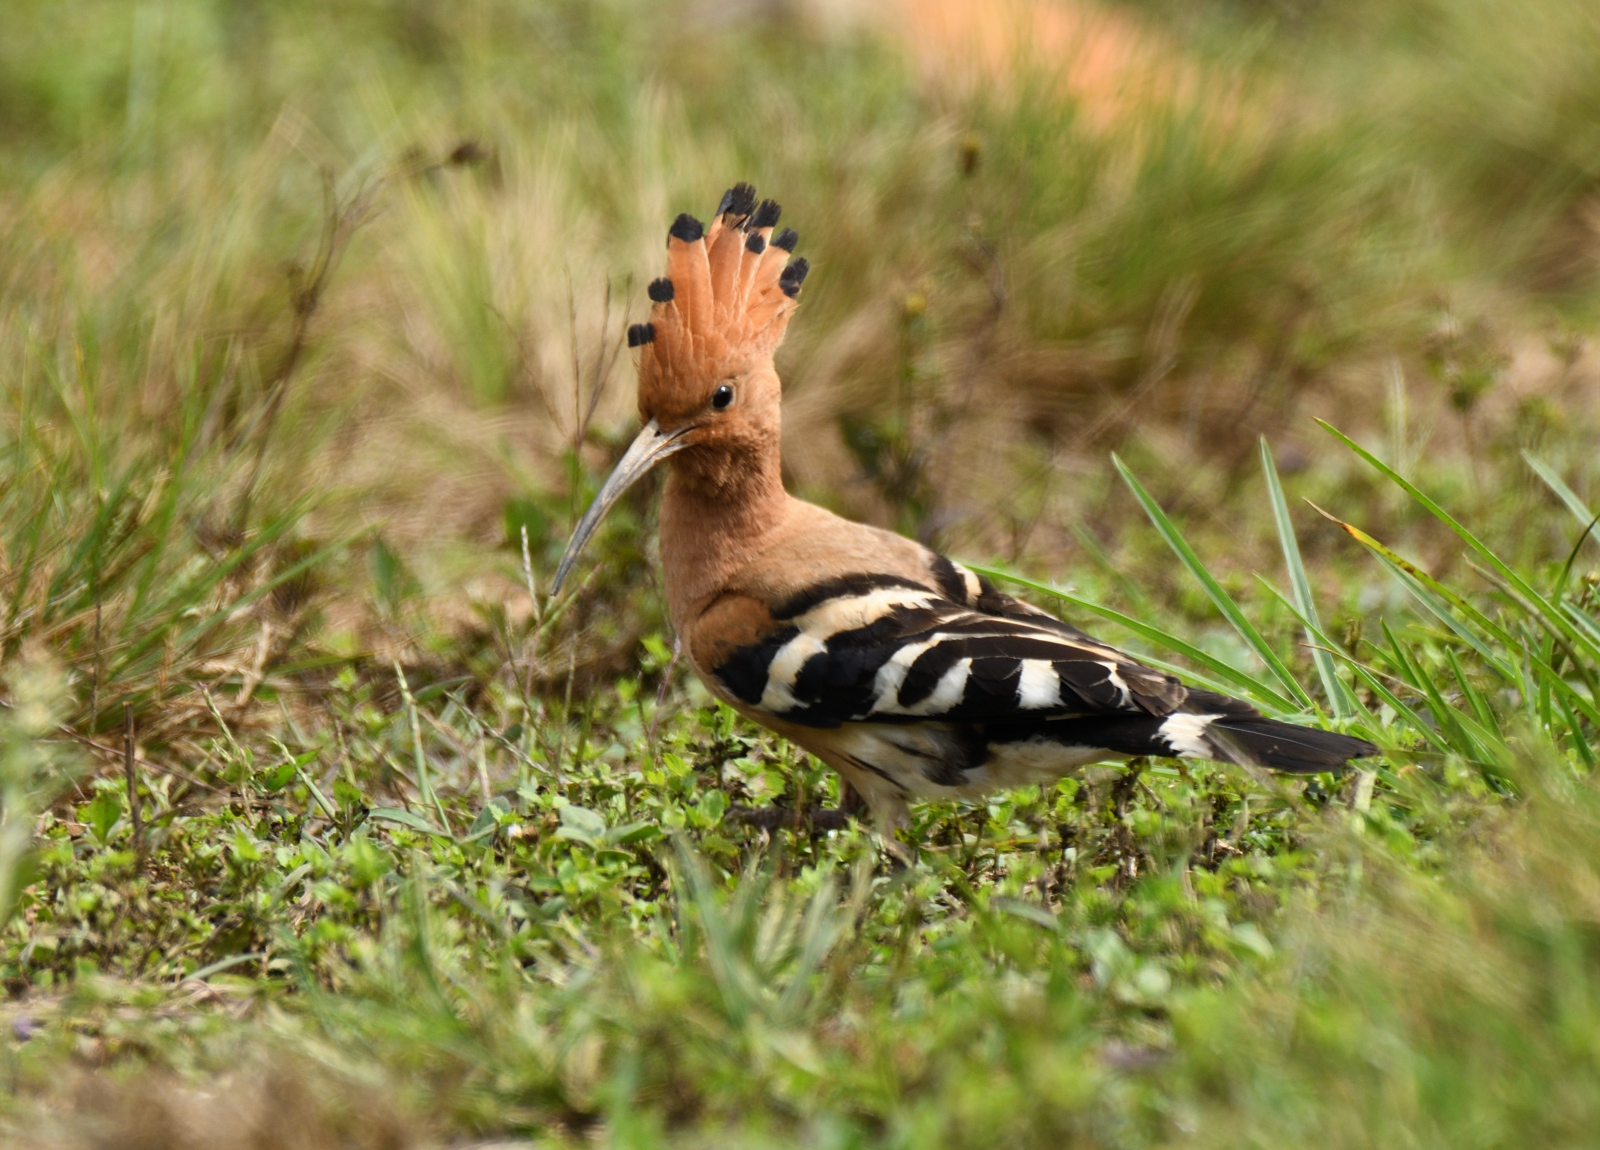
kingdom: Animalia
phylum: Chordata
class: Aves
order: Bucerotiformes
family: Upupidae
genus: Upupa
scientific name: Upupa epops
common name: Eurasian hoopoe
